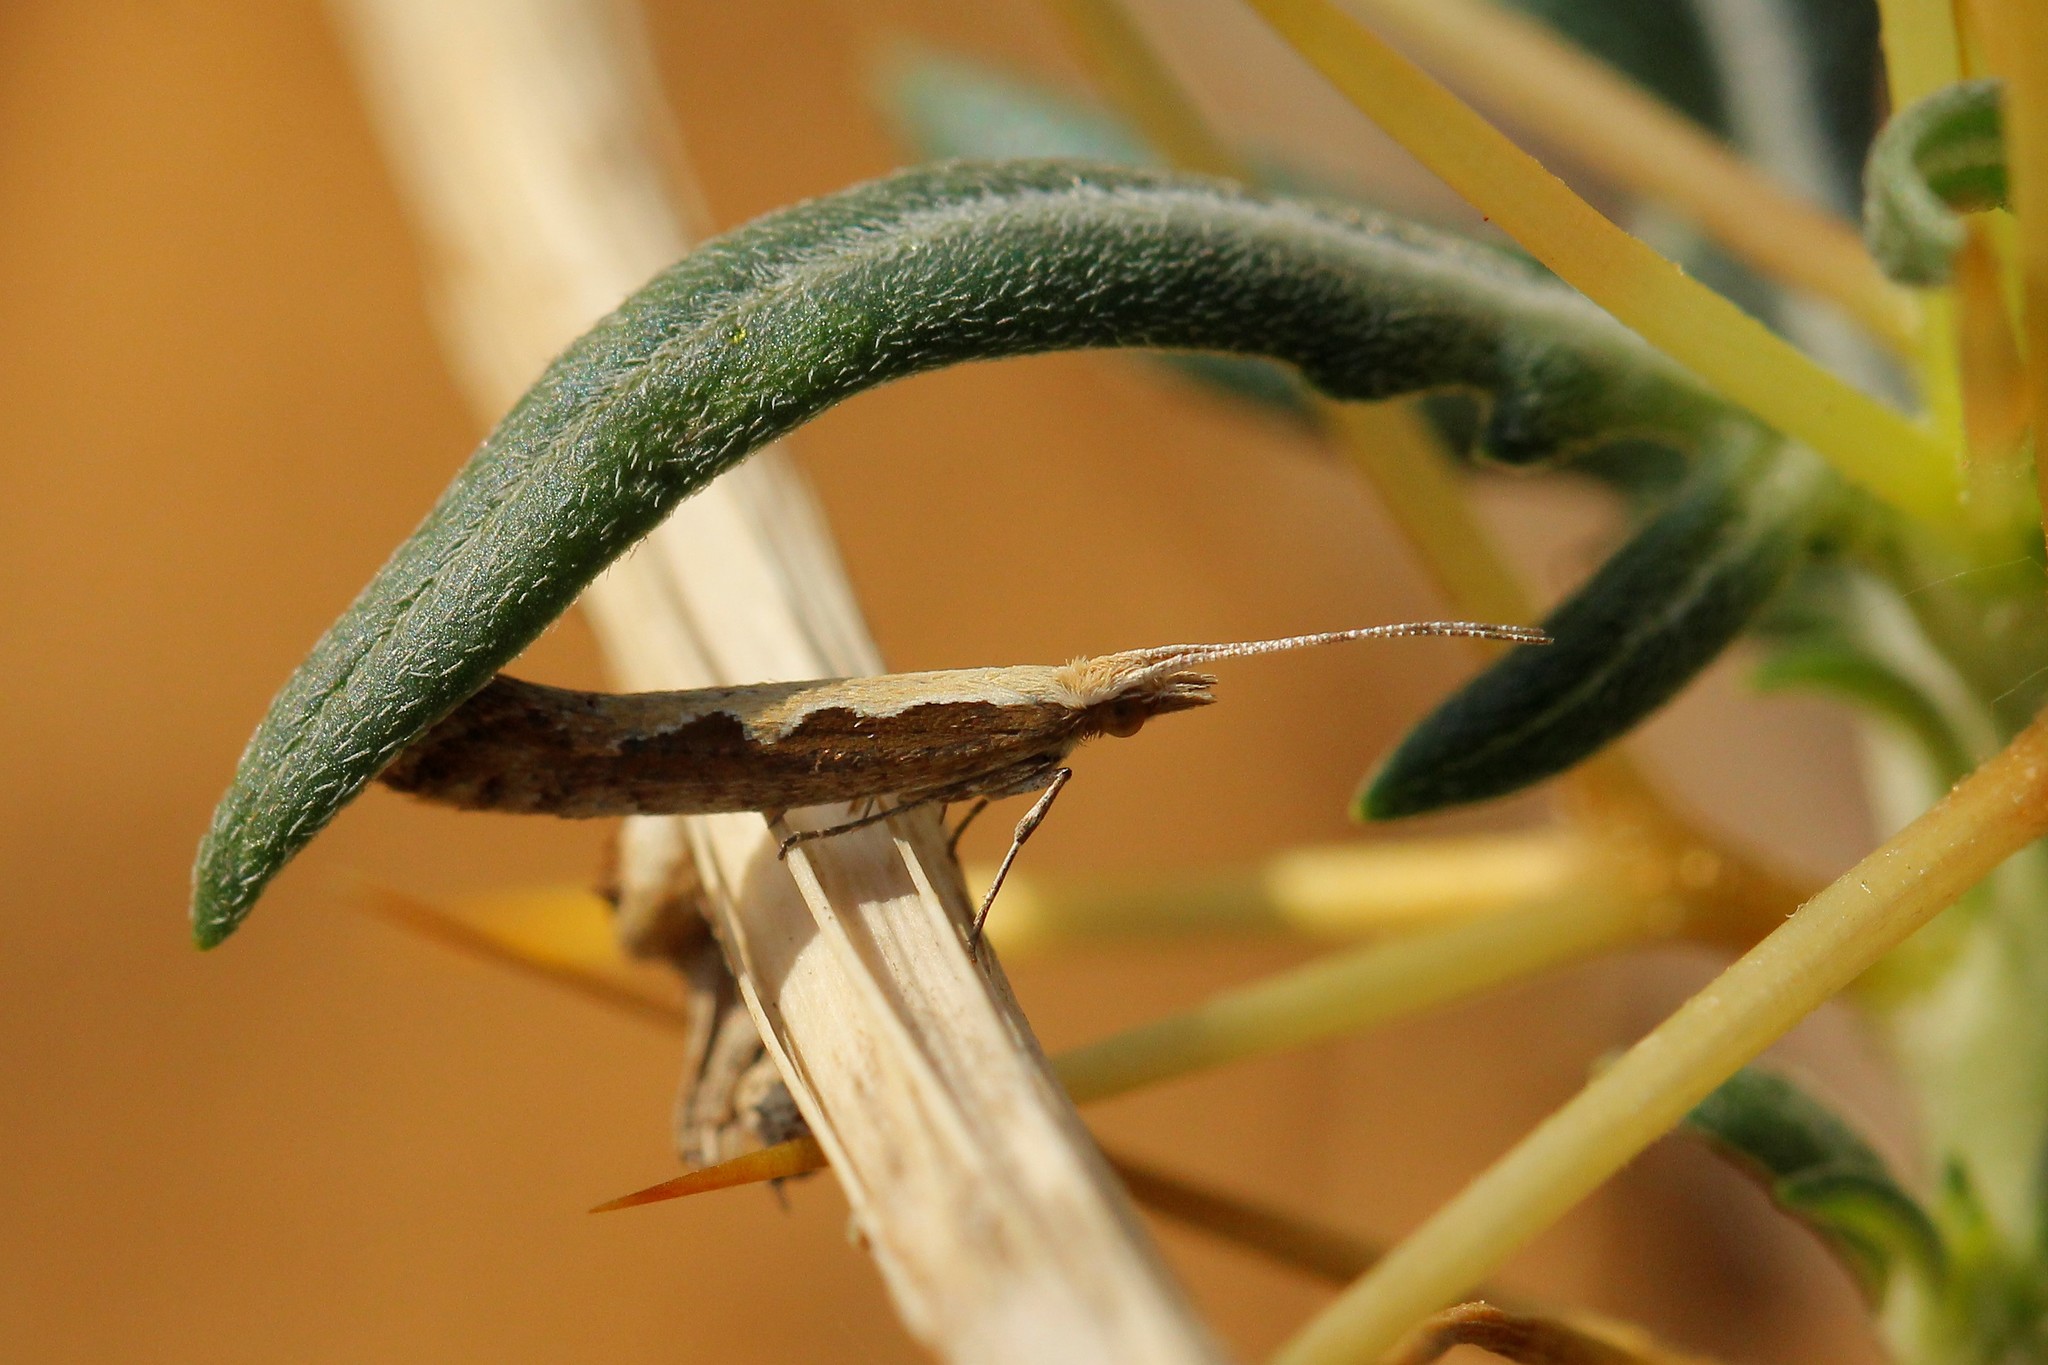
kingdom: Animalia
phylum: Arthropoda
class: Insecta
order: Lepidoptera
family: Plutellidae
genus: Plutella
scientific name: Plutella xylostella
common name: Diamond-back moth
